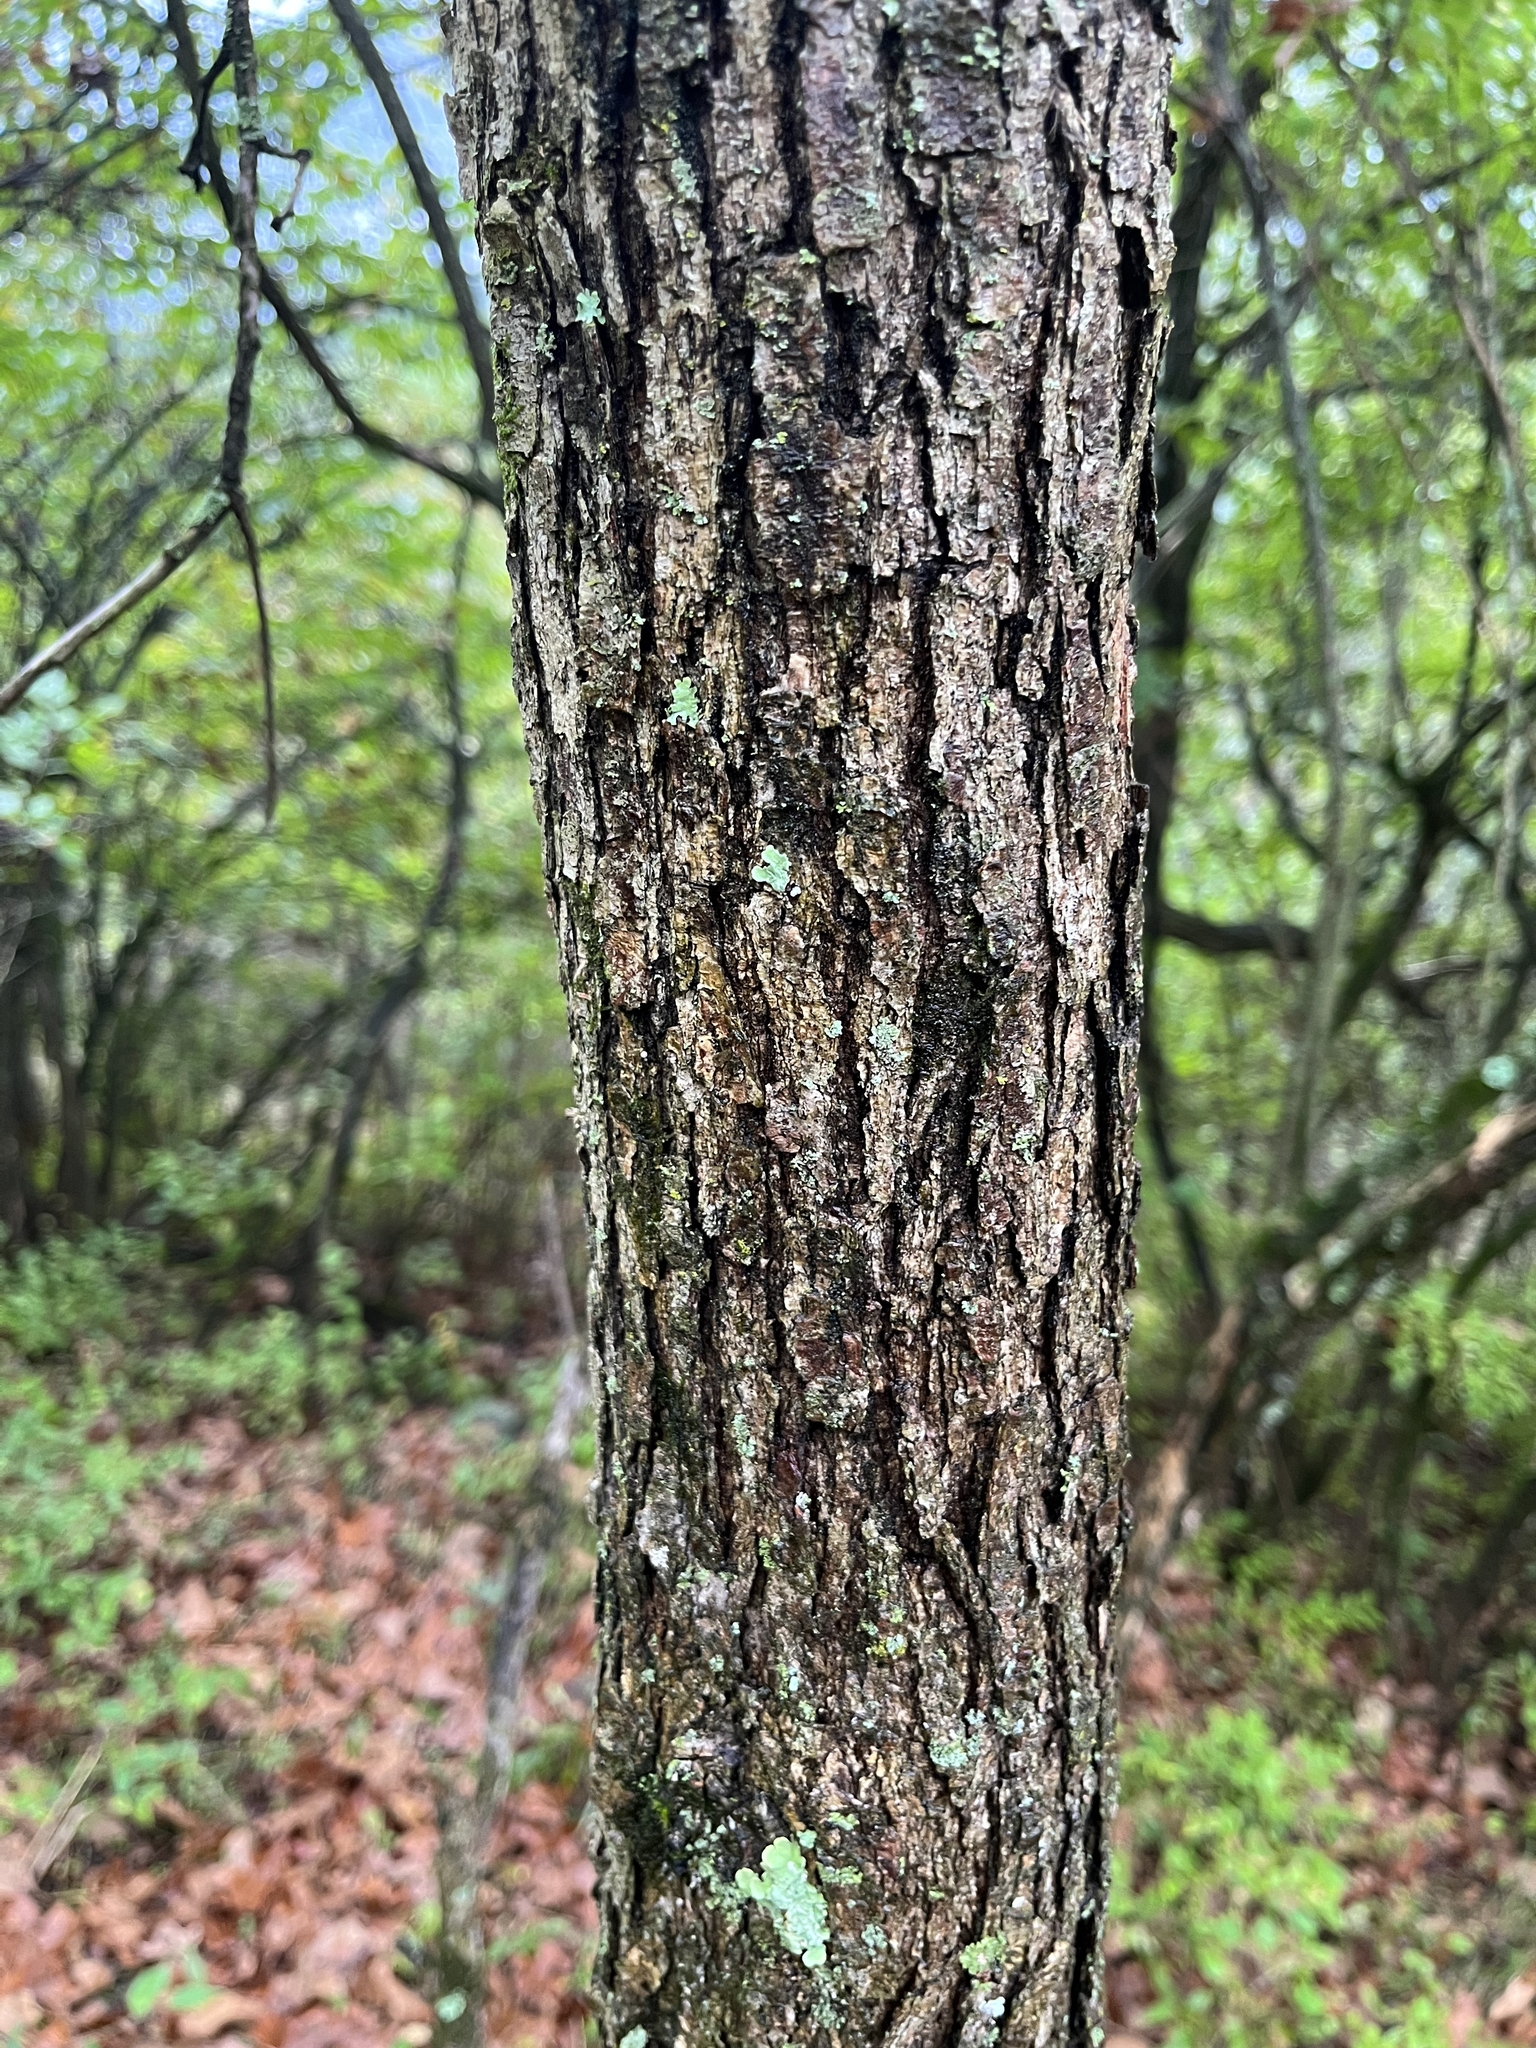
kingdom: Plantae
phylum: Tracheophyta
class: Magnoliopsida
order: Fagales
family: Fagaceae
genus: Quercus
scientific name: Quercus stellata
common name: Post oak
